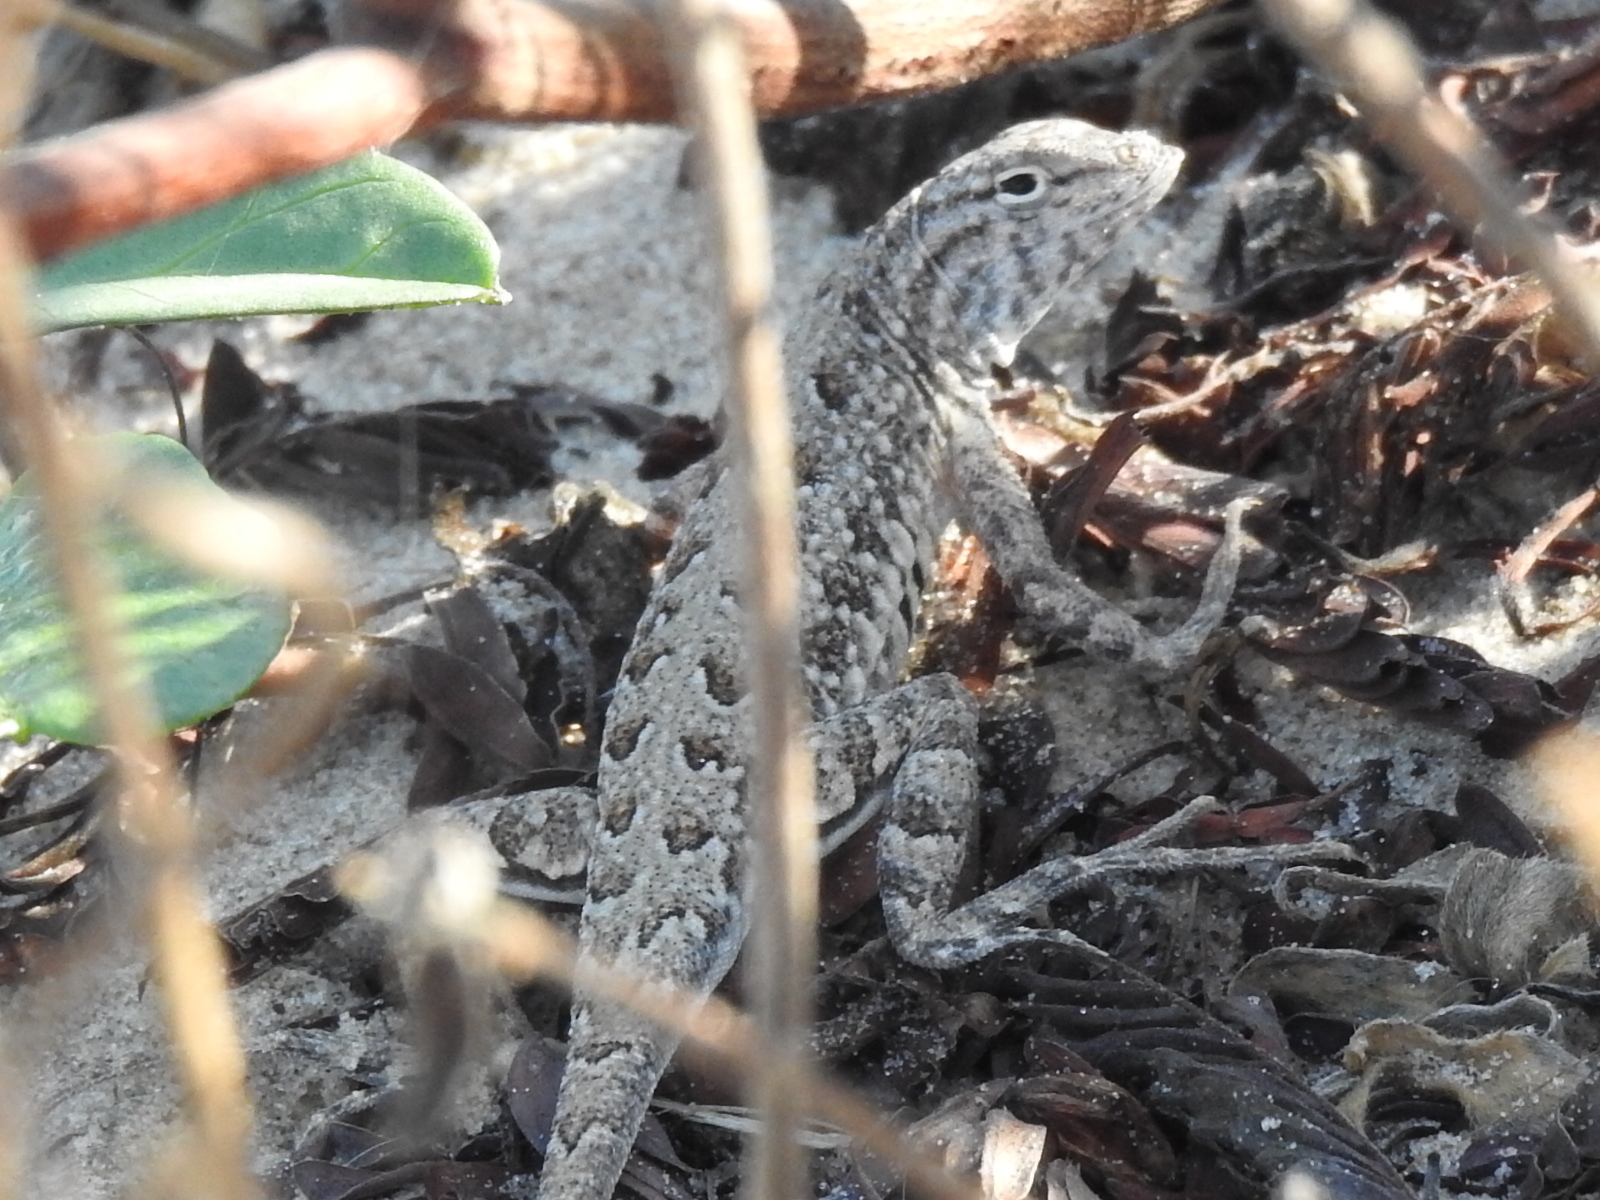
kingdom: Animalia
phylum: Chordata
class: Squamata
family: Phrynosomatidae
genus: Holbrookia
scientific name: Holbrookia propinqua
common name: Keeled earless lizard
